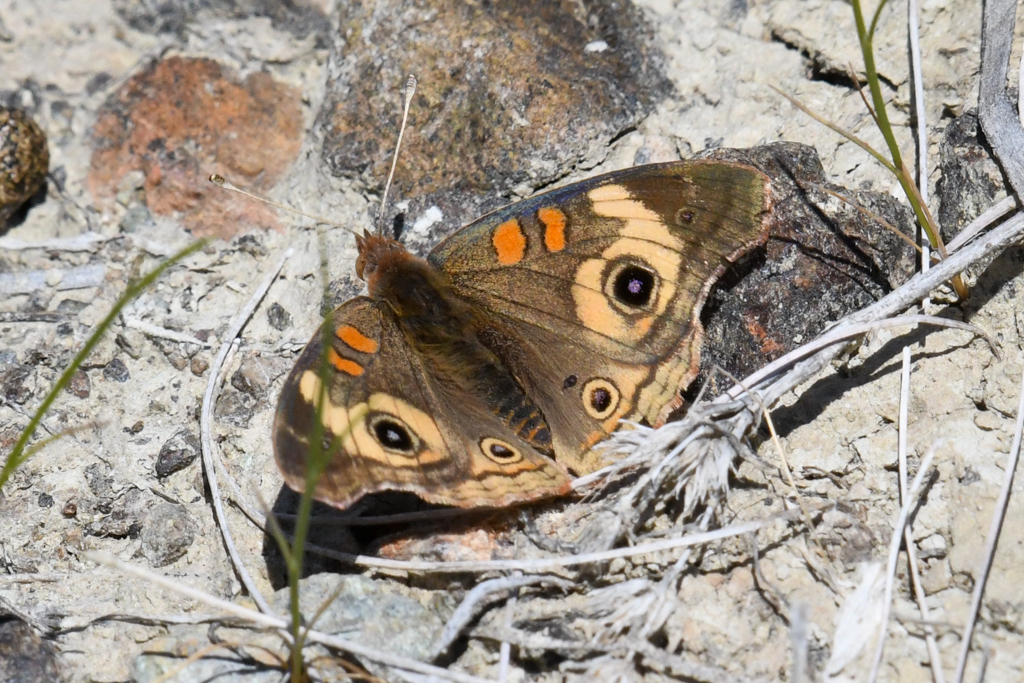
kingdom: Animalia
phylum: Arthropoda
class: Insecta
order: Lepidoptera
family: Nymphalidae
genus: Junonia
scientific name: Junonia grisea
